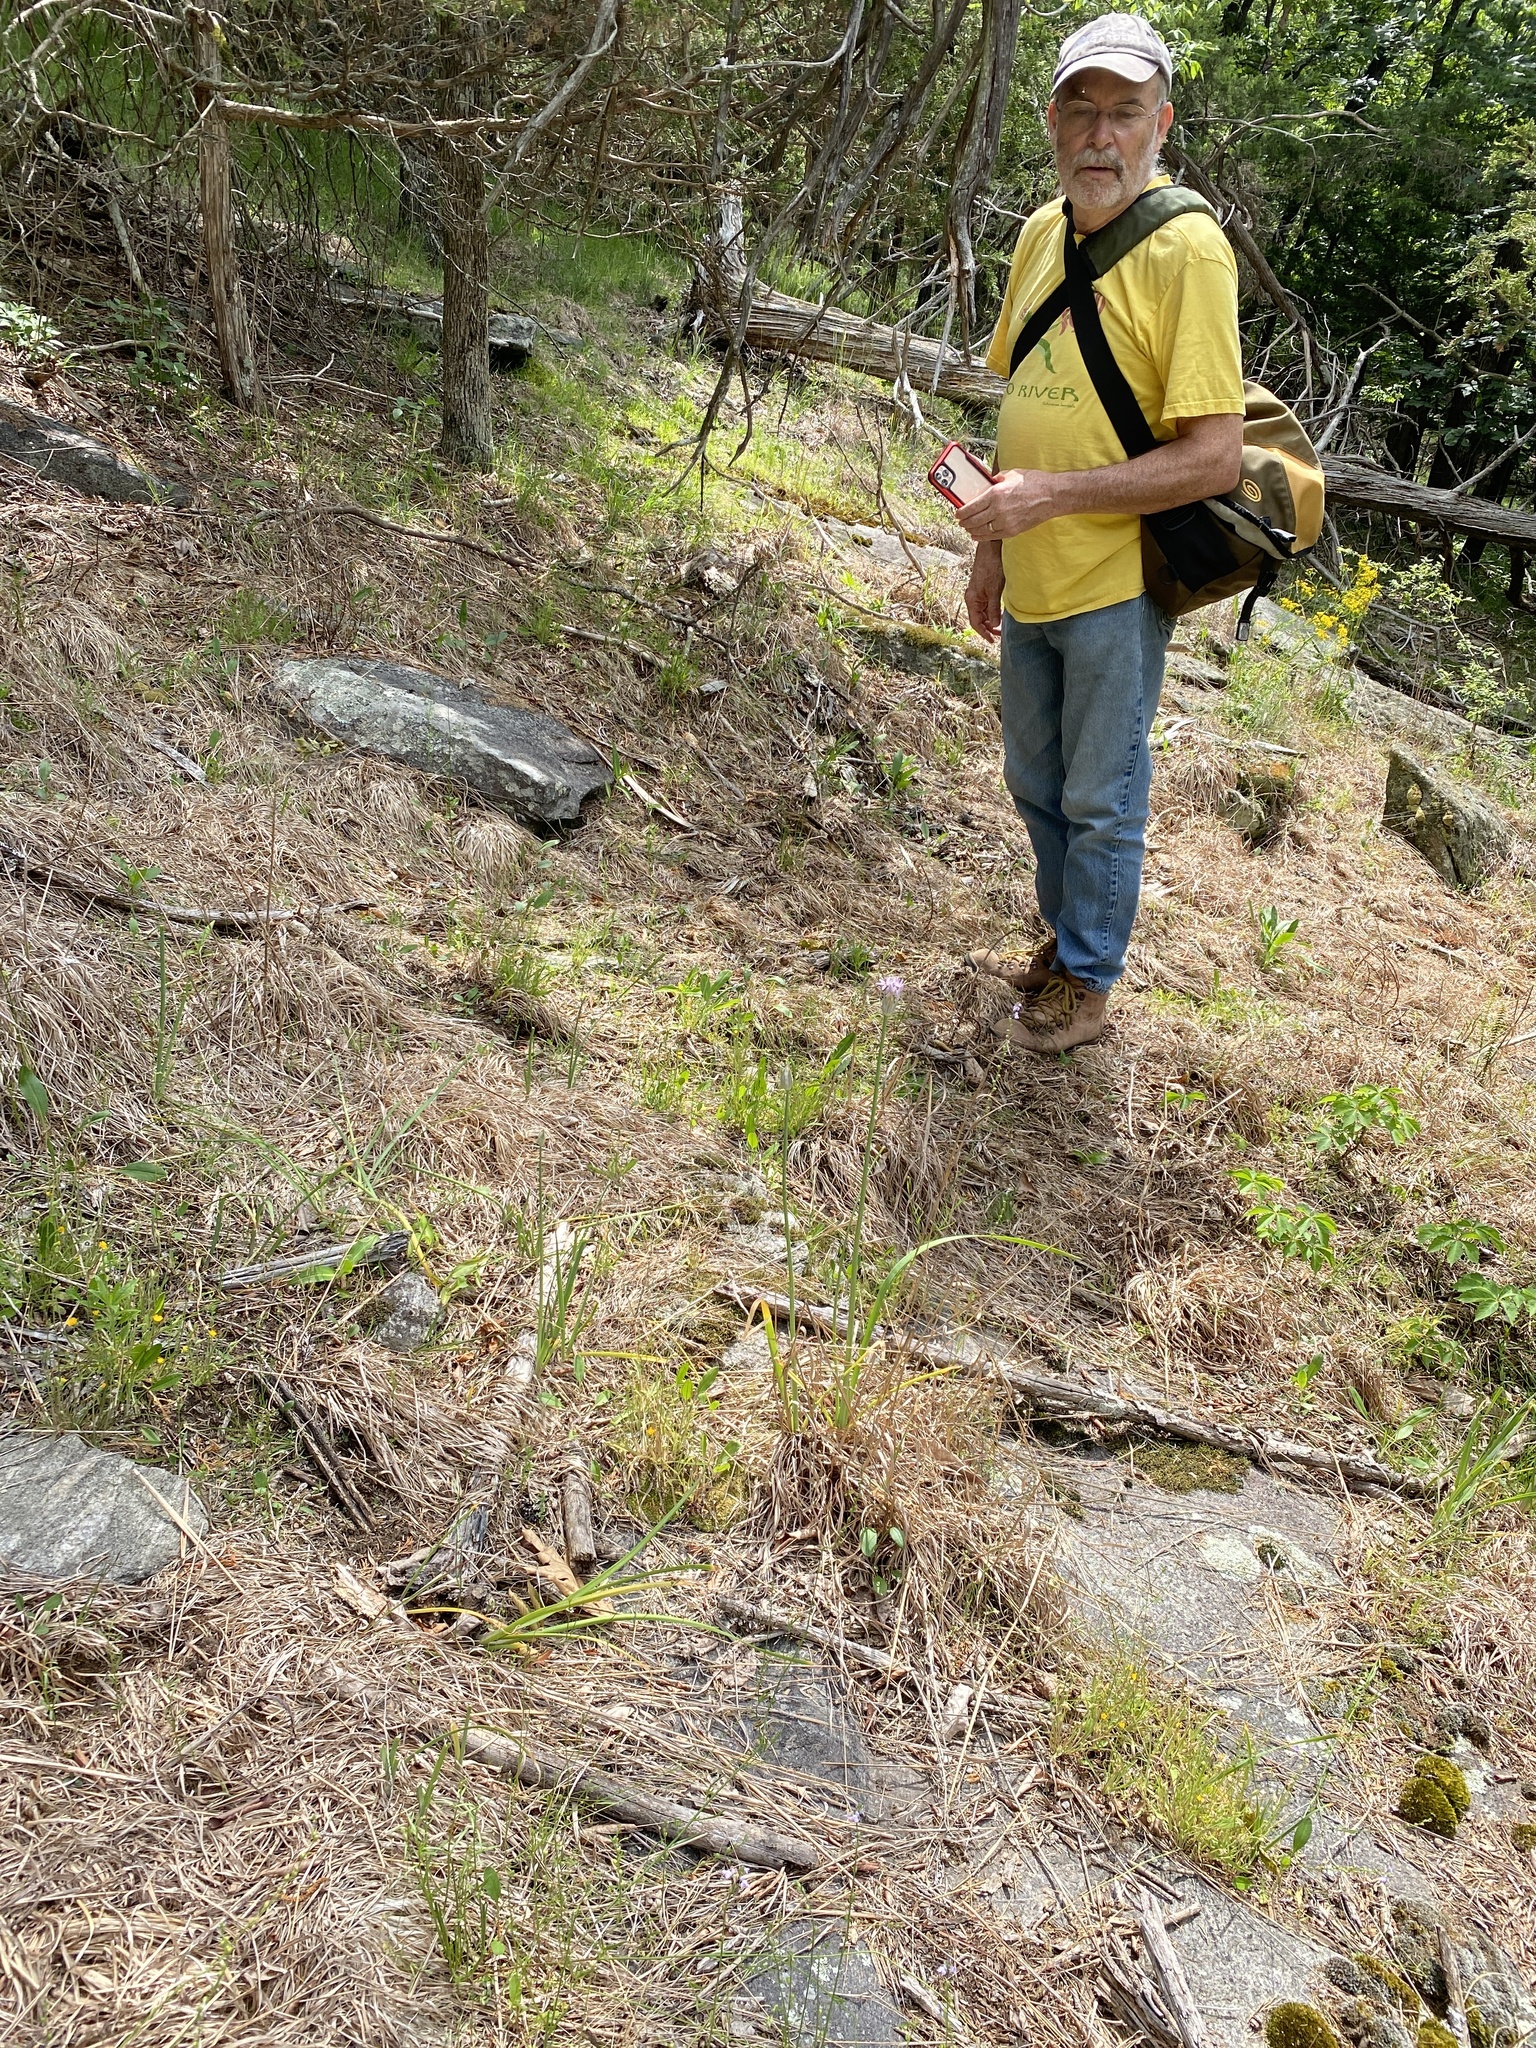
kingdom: Plantae
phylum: Tracheophyta
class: Liliopsida
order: Asparagales
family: Amaryllidaceae
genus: Allium
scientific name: Allium keeverae
